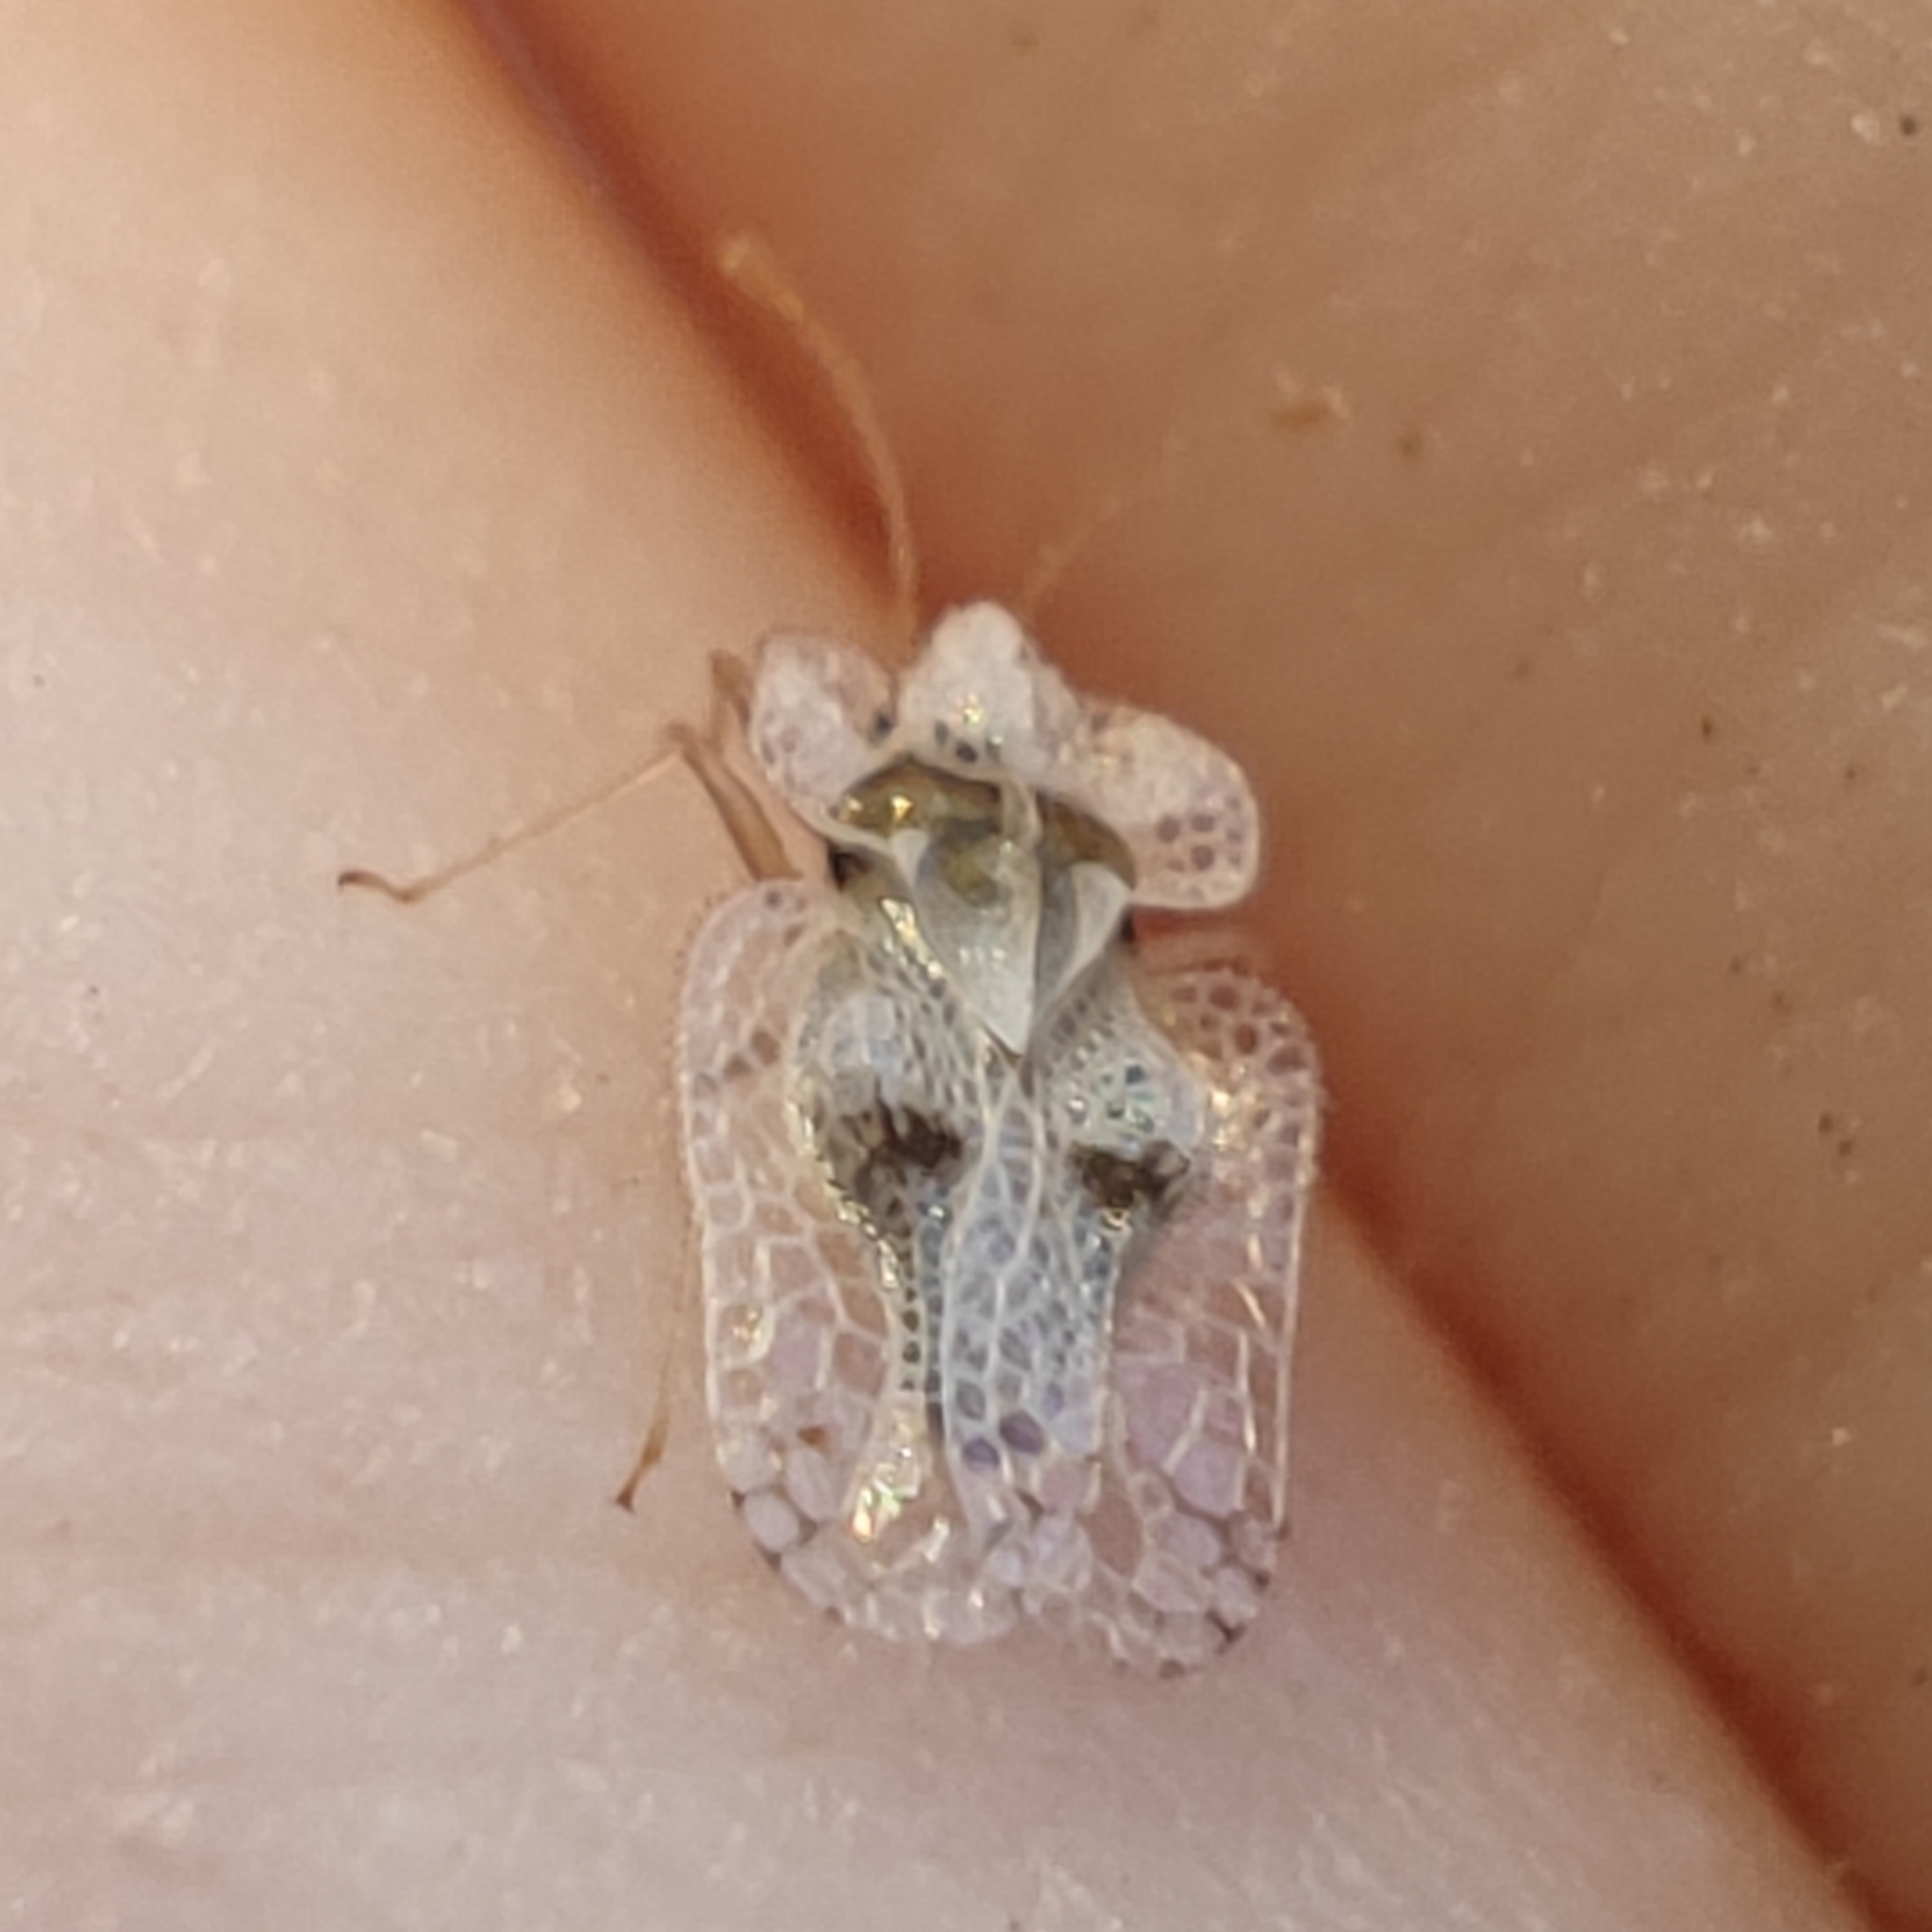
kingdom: Animalia
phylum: Arthropoda
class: Insecta
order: Hemiptera
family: Tingidae
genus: Corythucha
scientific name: Corythucha ciliata
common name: Sycamore lace bug
